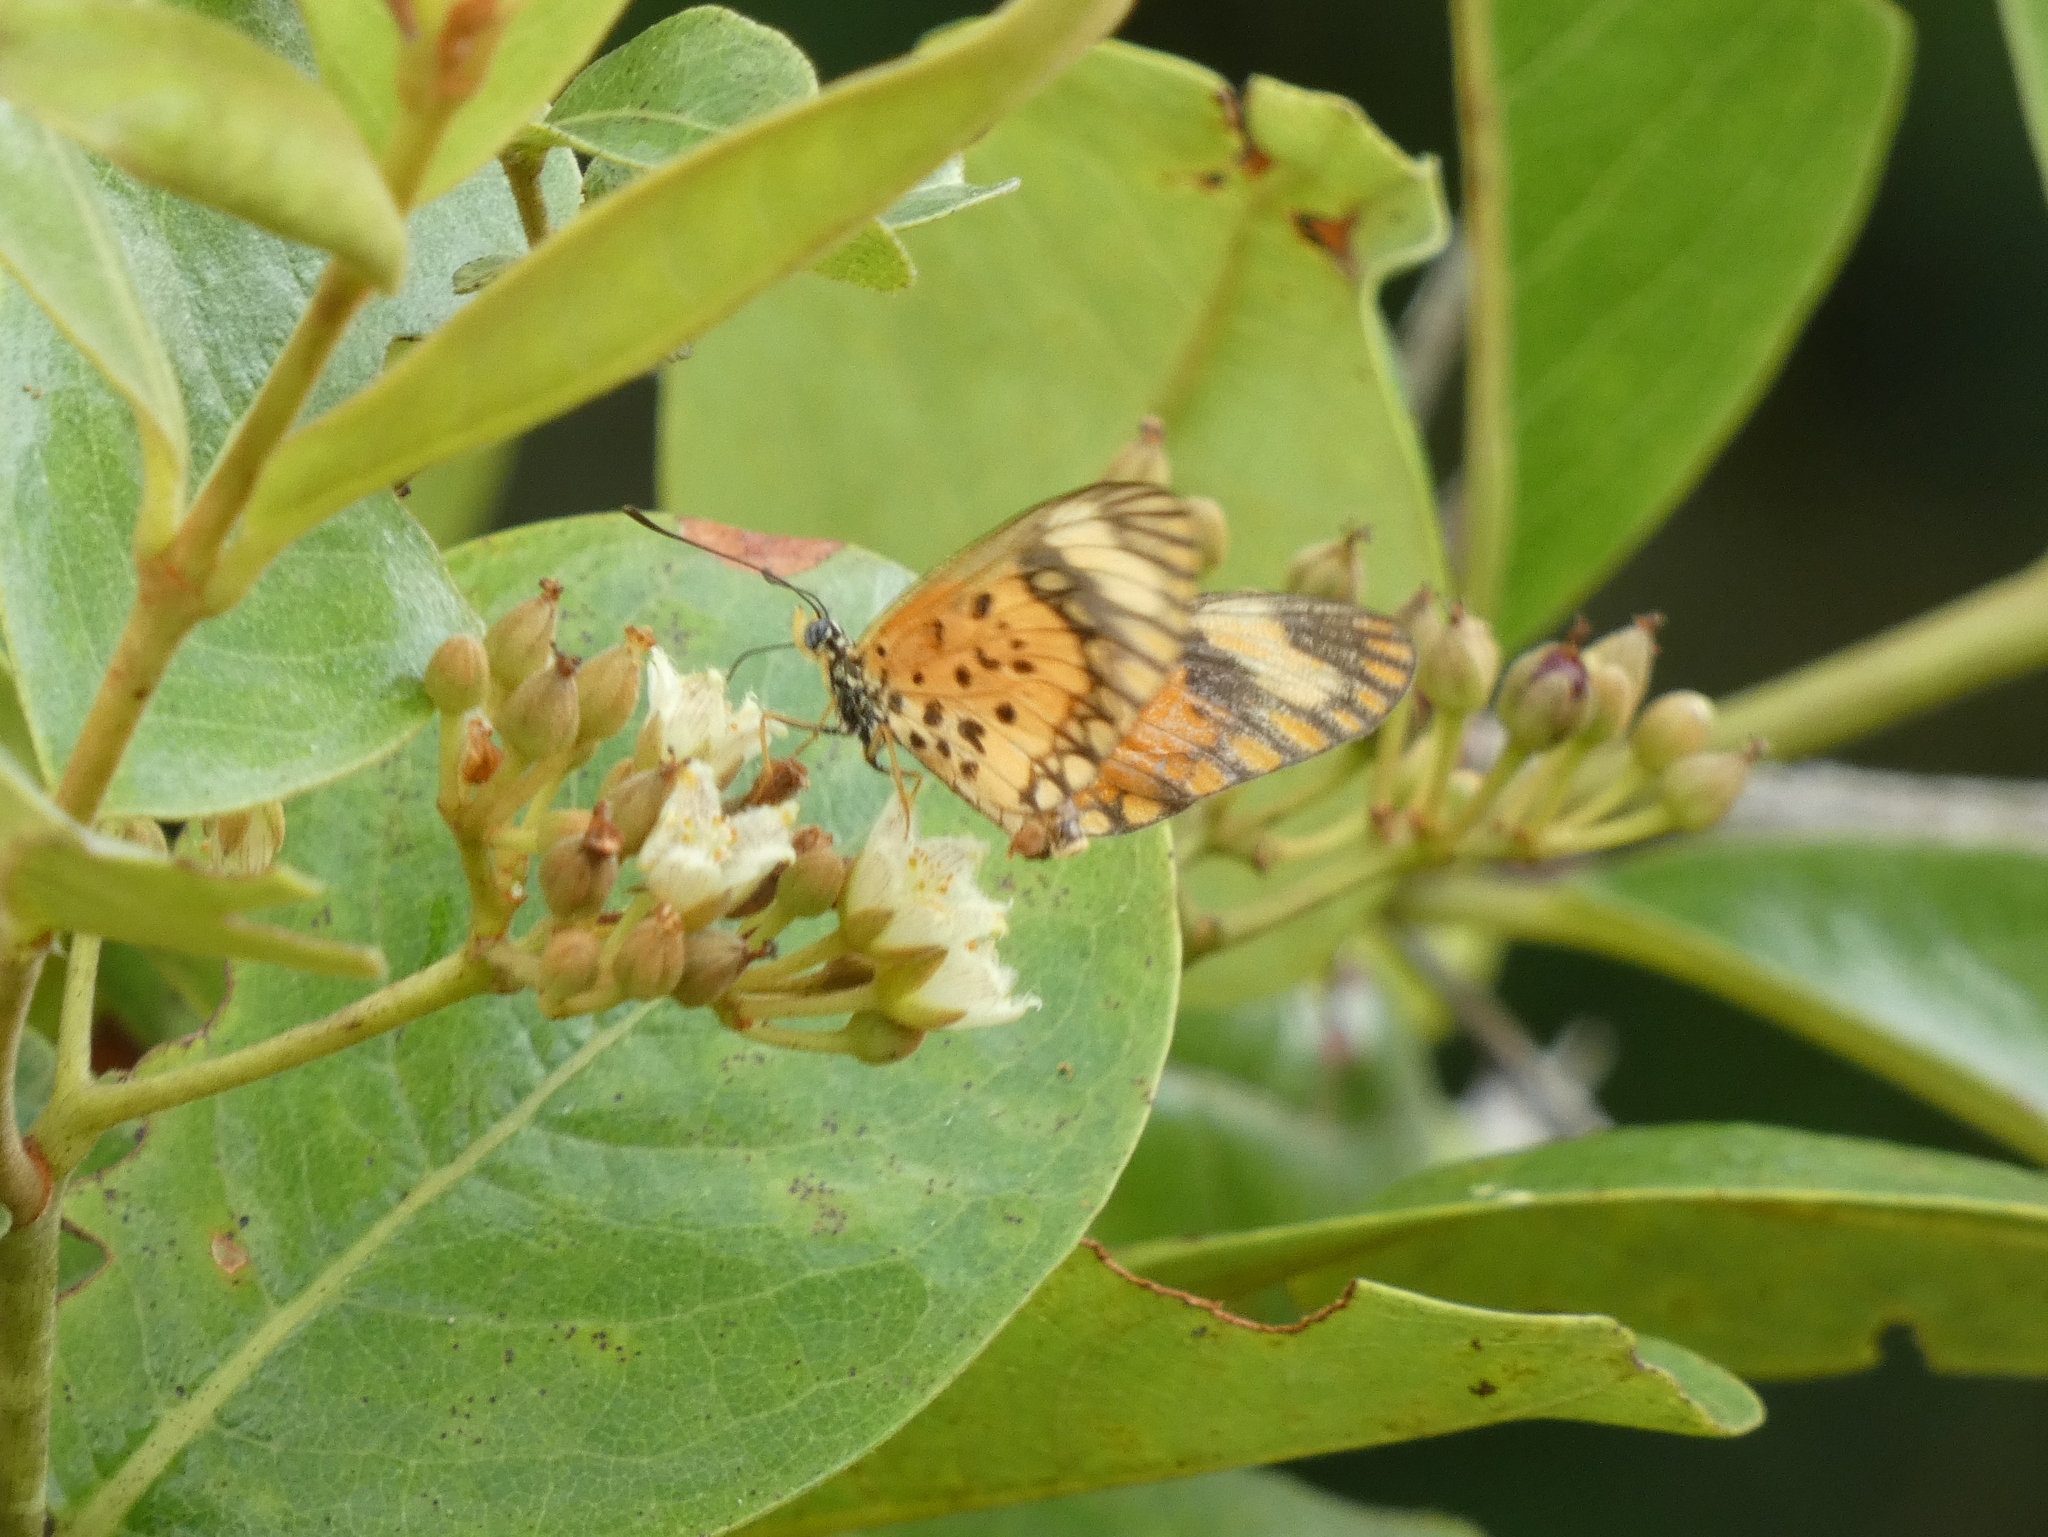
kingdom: Animalia
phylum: Arthropoda
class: Insecta
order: Lepidoptera
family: Nymphalidae
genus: Acraea
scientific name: Acraea Telchinia serena
